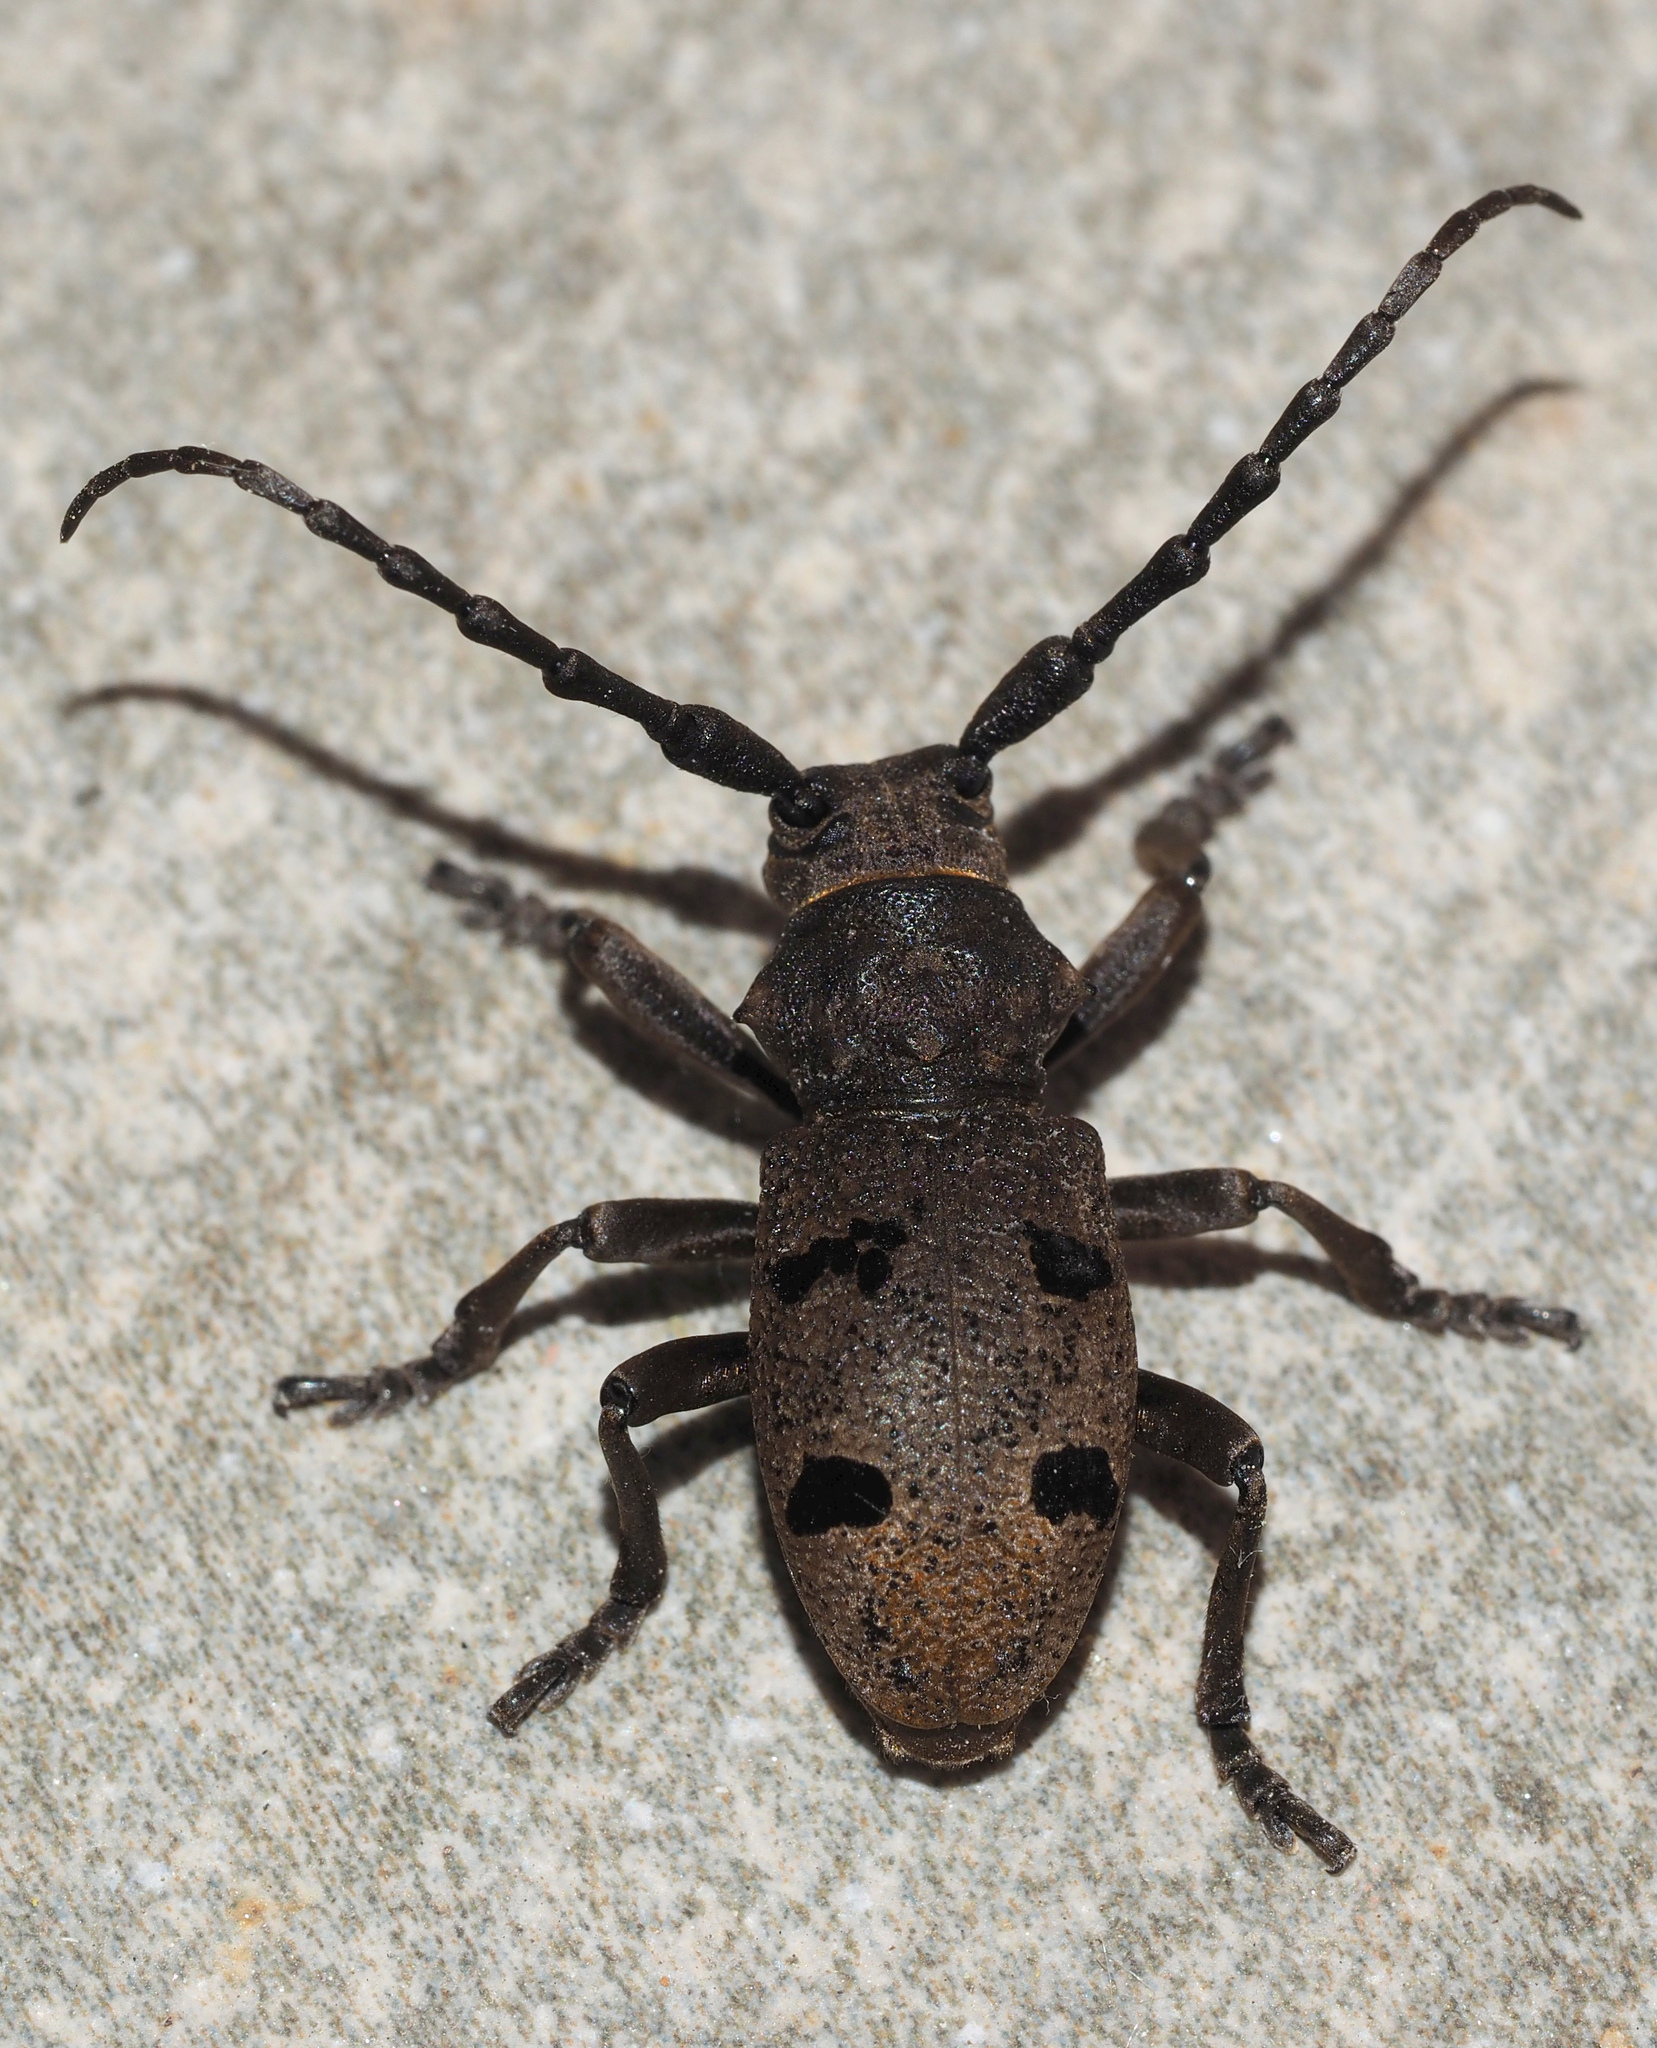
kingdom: Animalia
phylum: Arthropoda
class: Insecta
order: Coleoptera
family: Cerambycidae
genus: Herophila
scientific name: Herophila tristis
